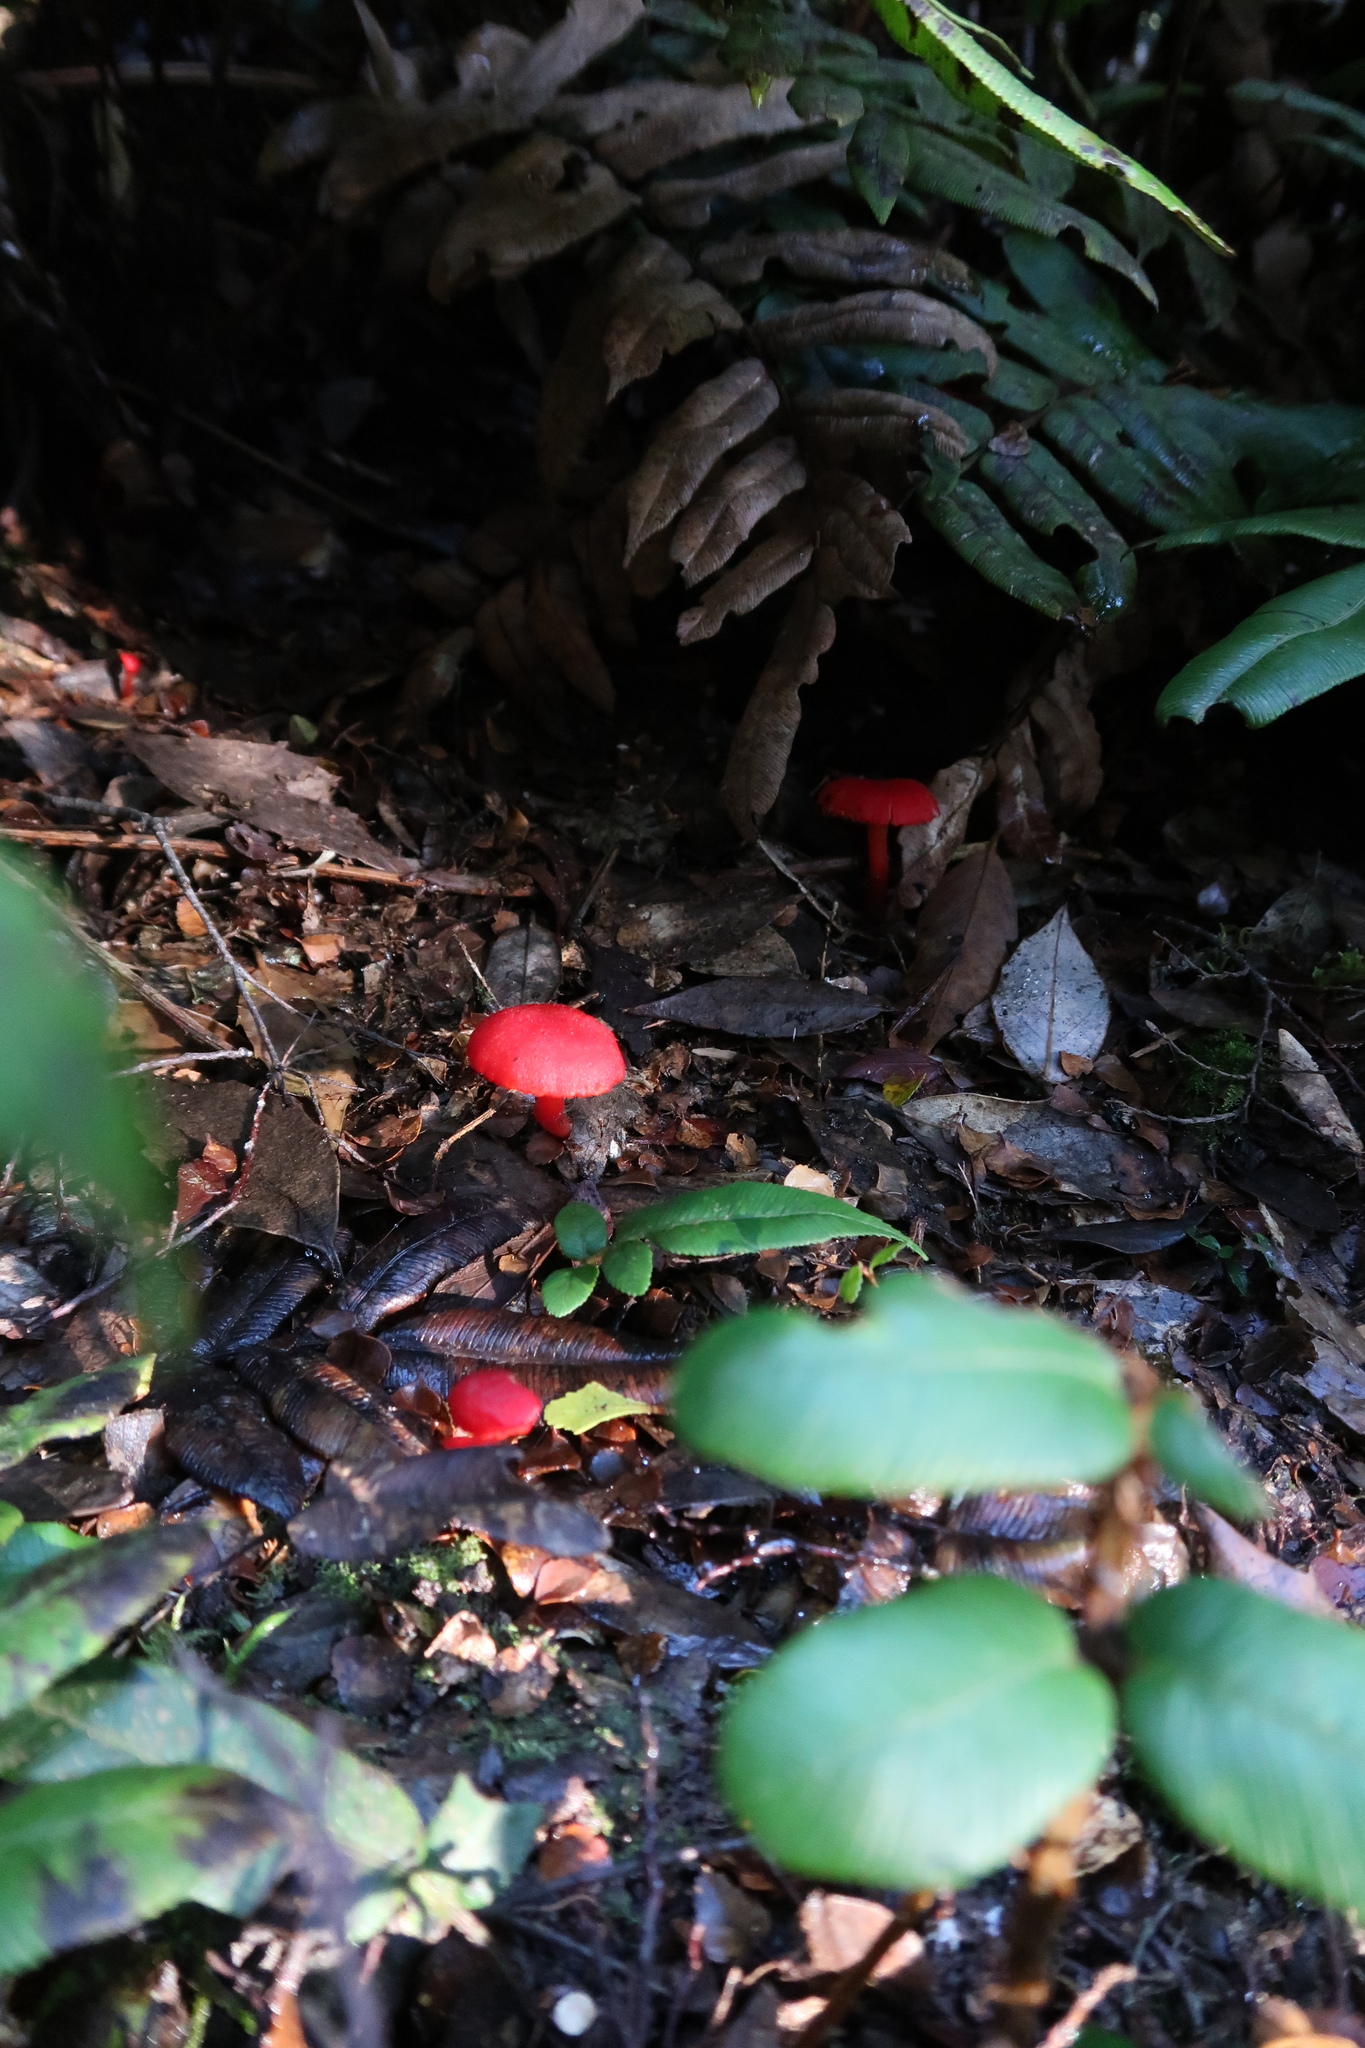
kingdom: Fungi
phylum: Basidiomycota
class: Agaricomycetes
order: Agaricales
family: Hygrophoraceae
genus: Hygrocybe
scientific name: Hygrocybe firma
